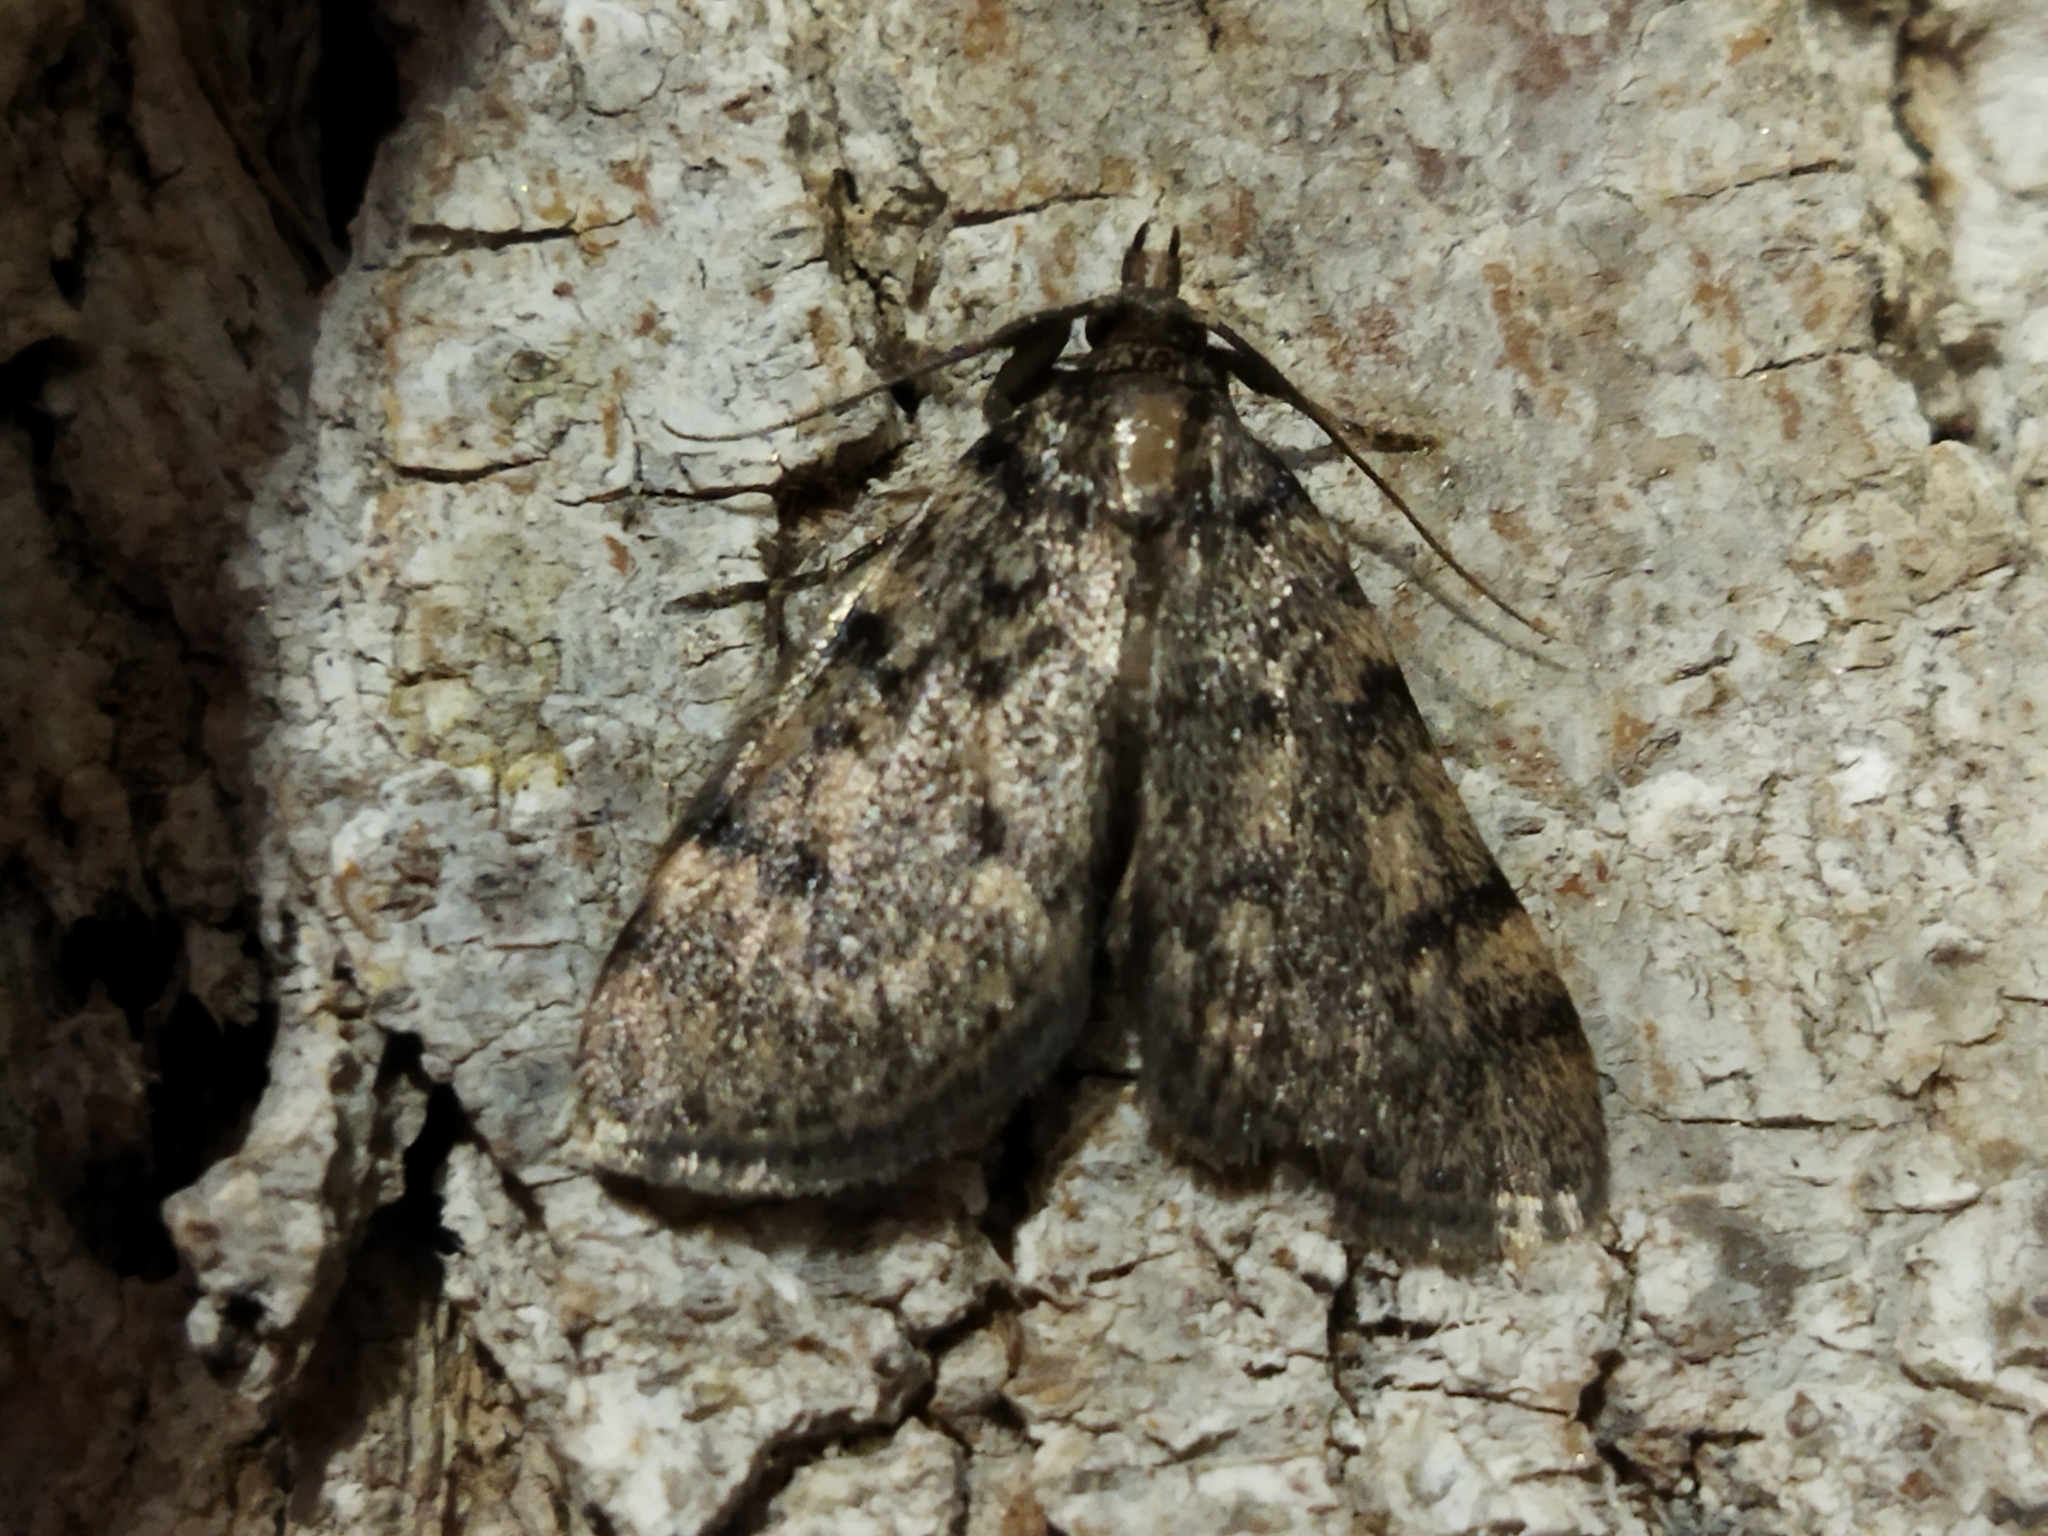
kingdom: Animalia
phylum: Arthropoda
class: Insecta
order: Lepidoptera
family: Pyralidae
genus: Aglossa
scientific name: Aglossa pinguinalis
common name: Large tabby
